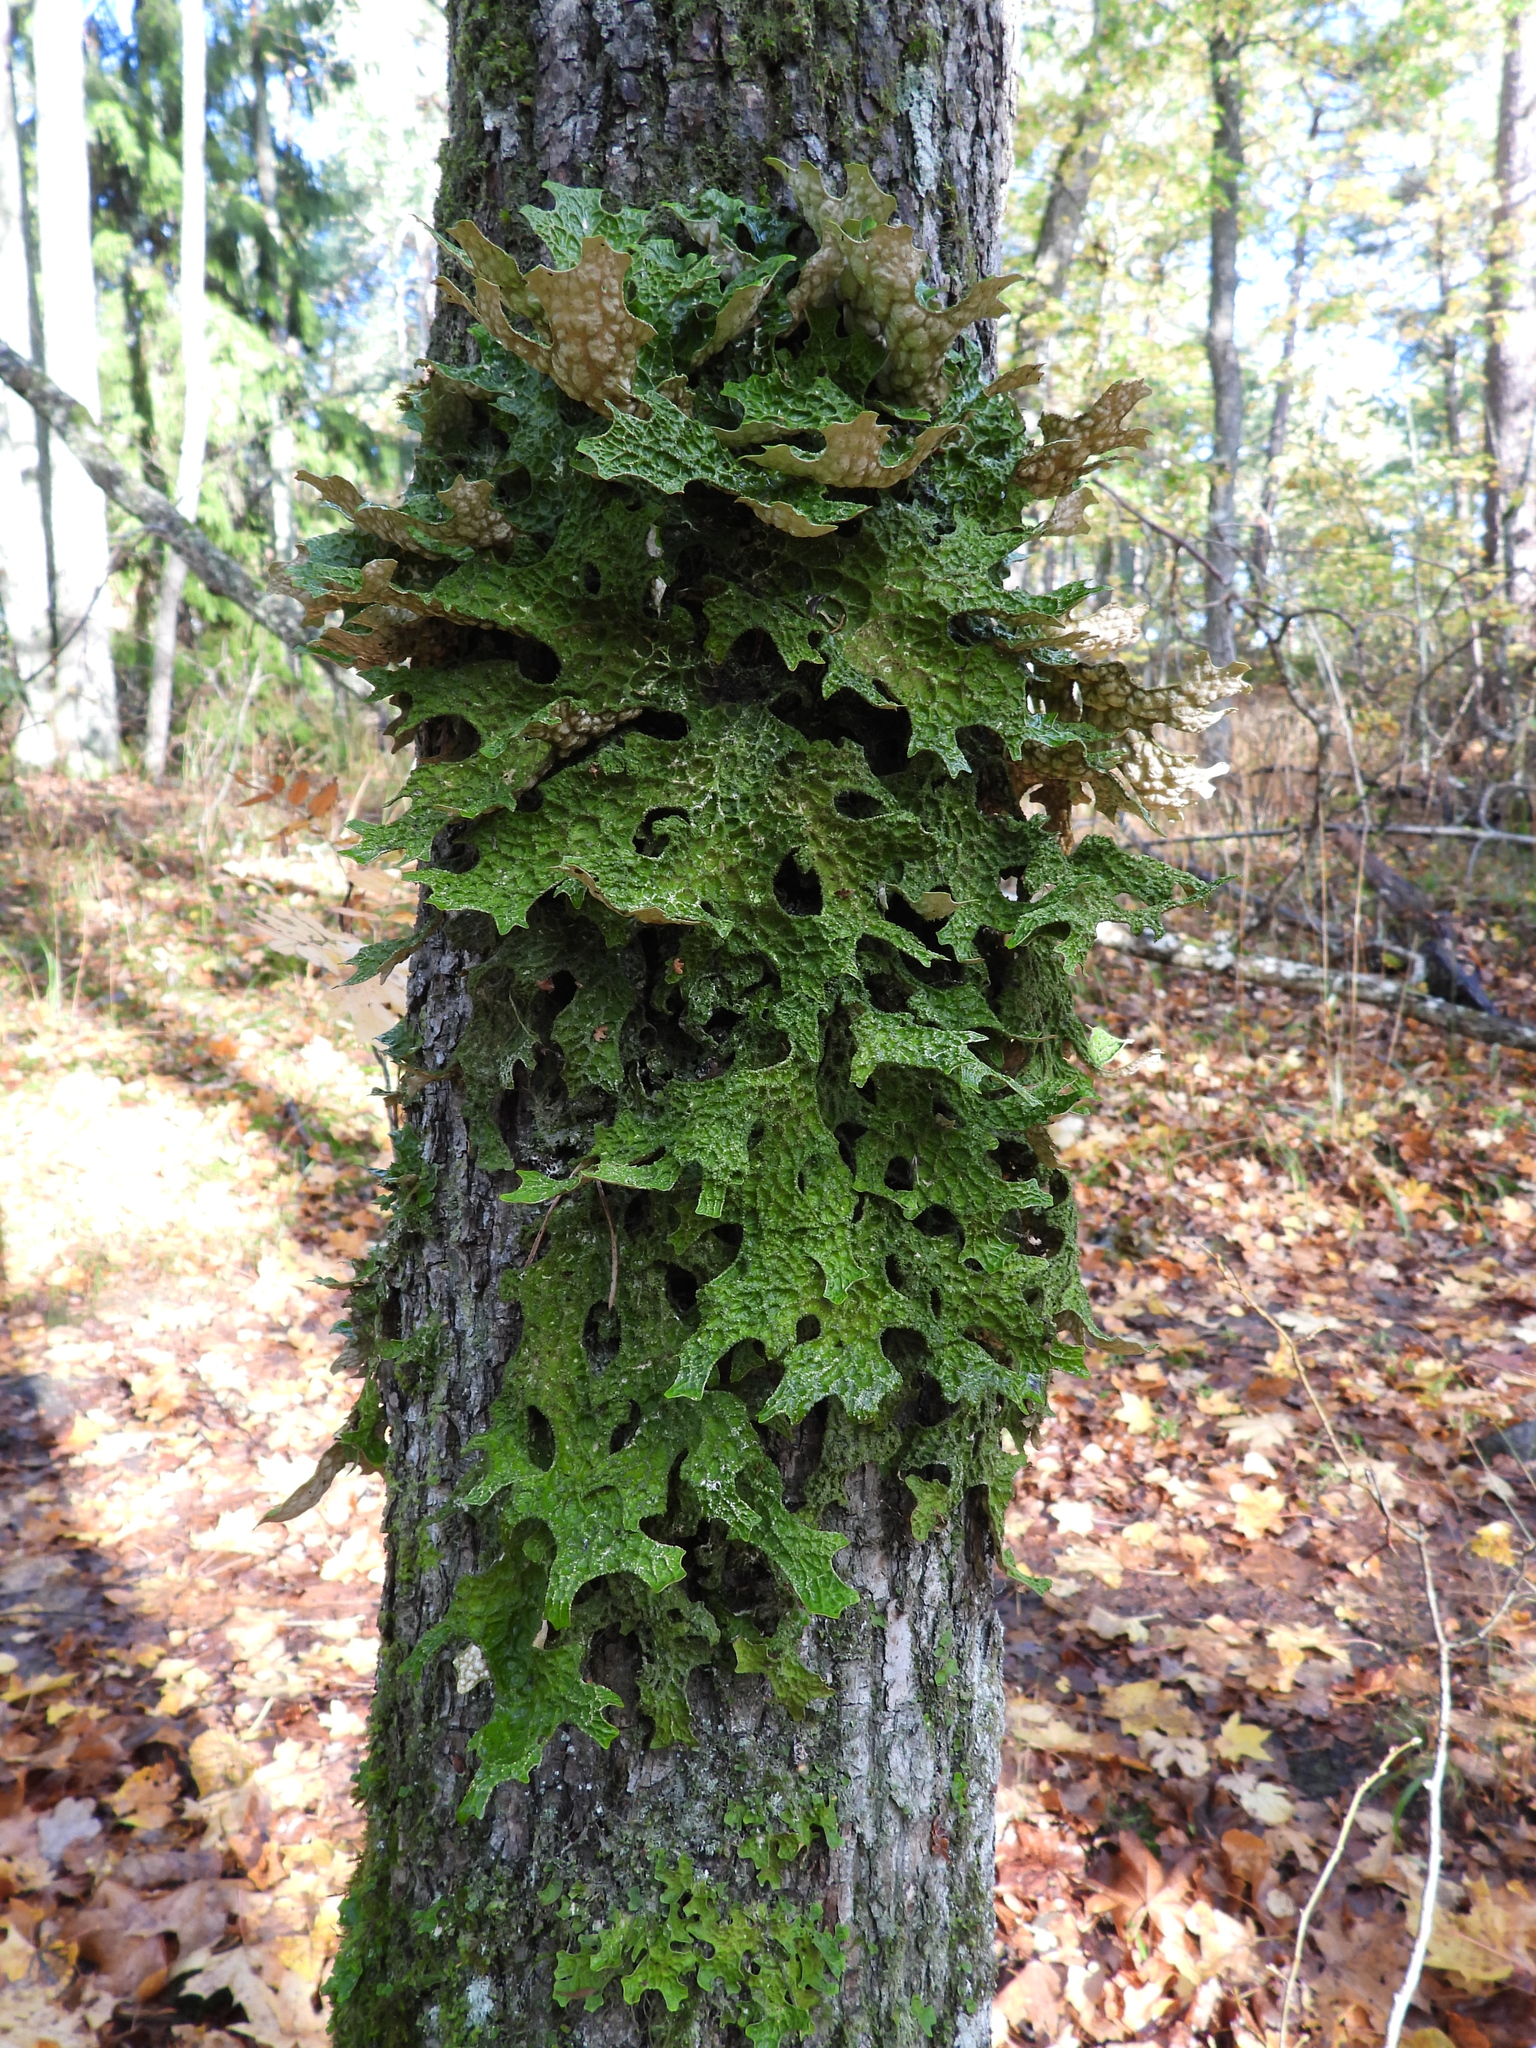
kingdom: Fungi
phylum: Ascomycota
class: Lecanoromycetes
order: Peltigerales
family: Lobariaceae
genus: Lobaria
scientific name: Lobaria pulmonaria
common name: Lungwort
